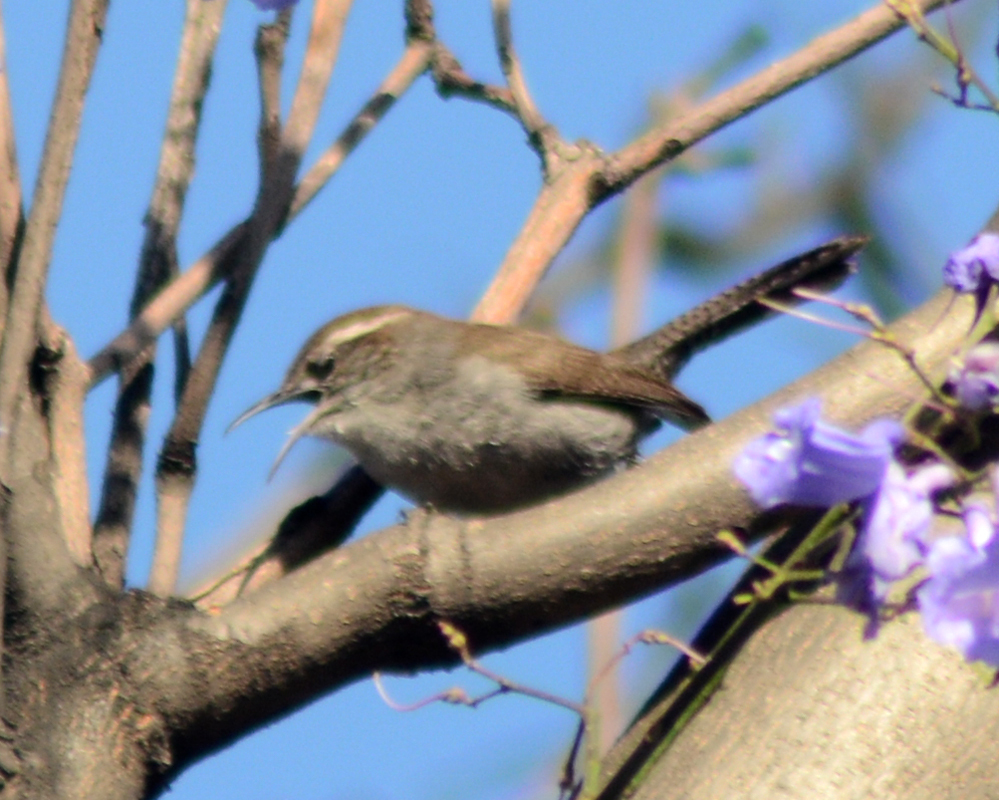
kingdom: Animalia
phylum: Chordata
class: Aves
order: Passeriformes
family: Troglodytidae
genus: Thryomanes
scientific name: Thryomanes bewickii
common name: Bewick's wren
